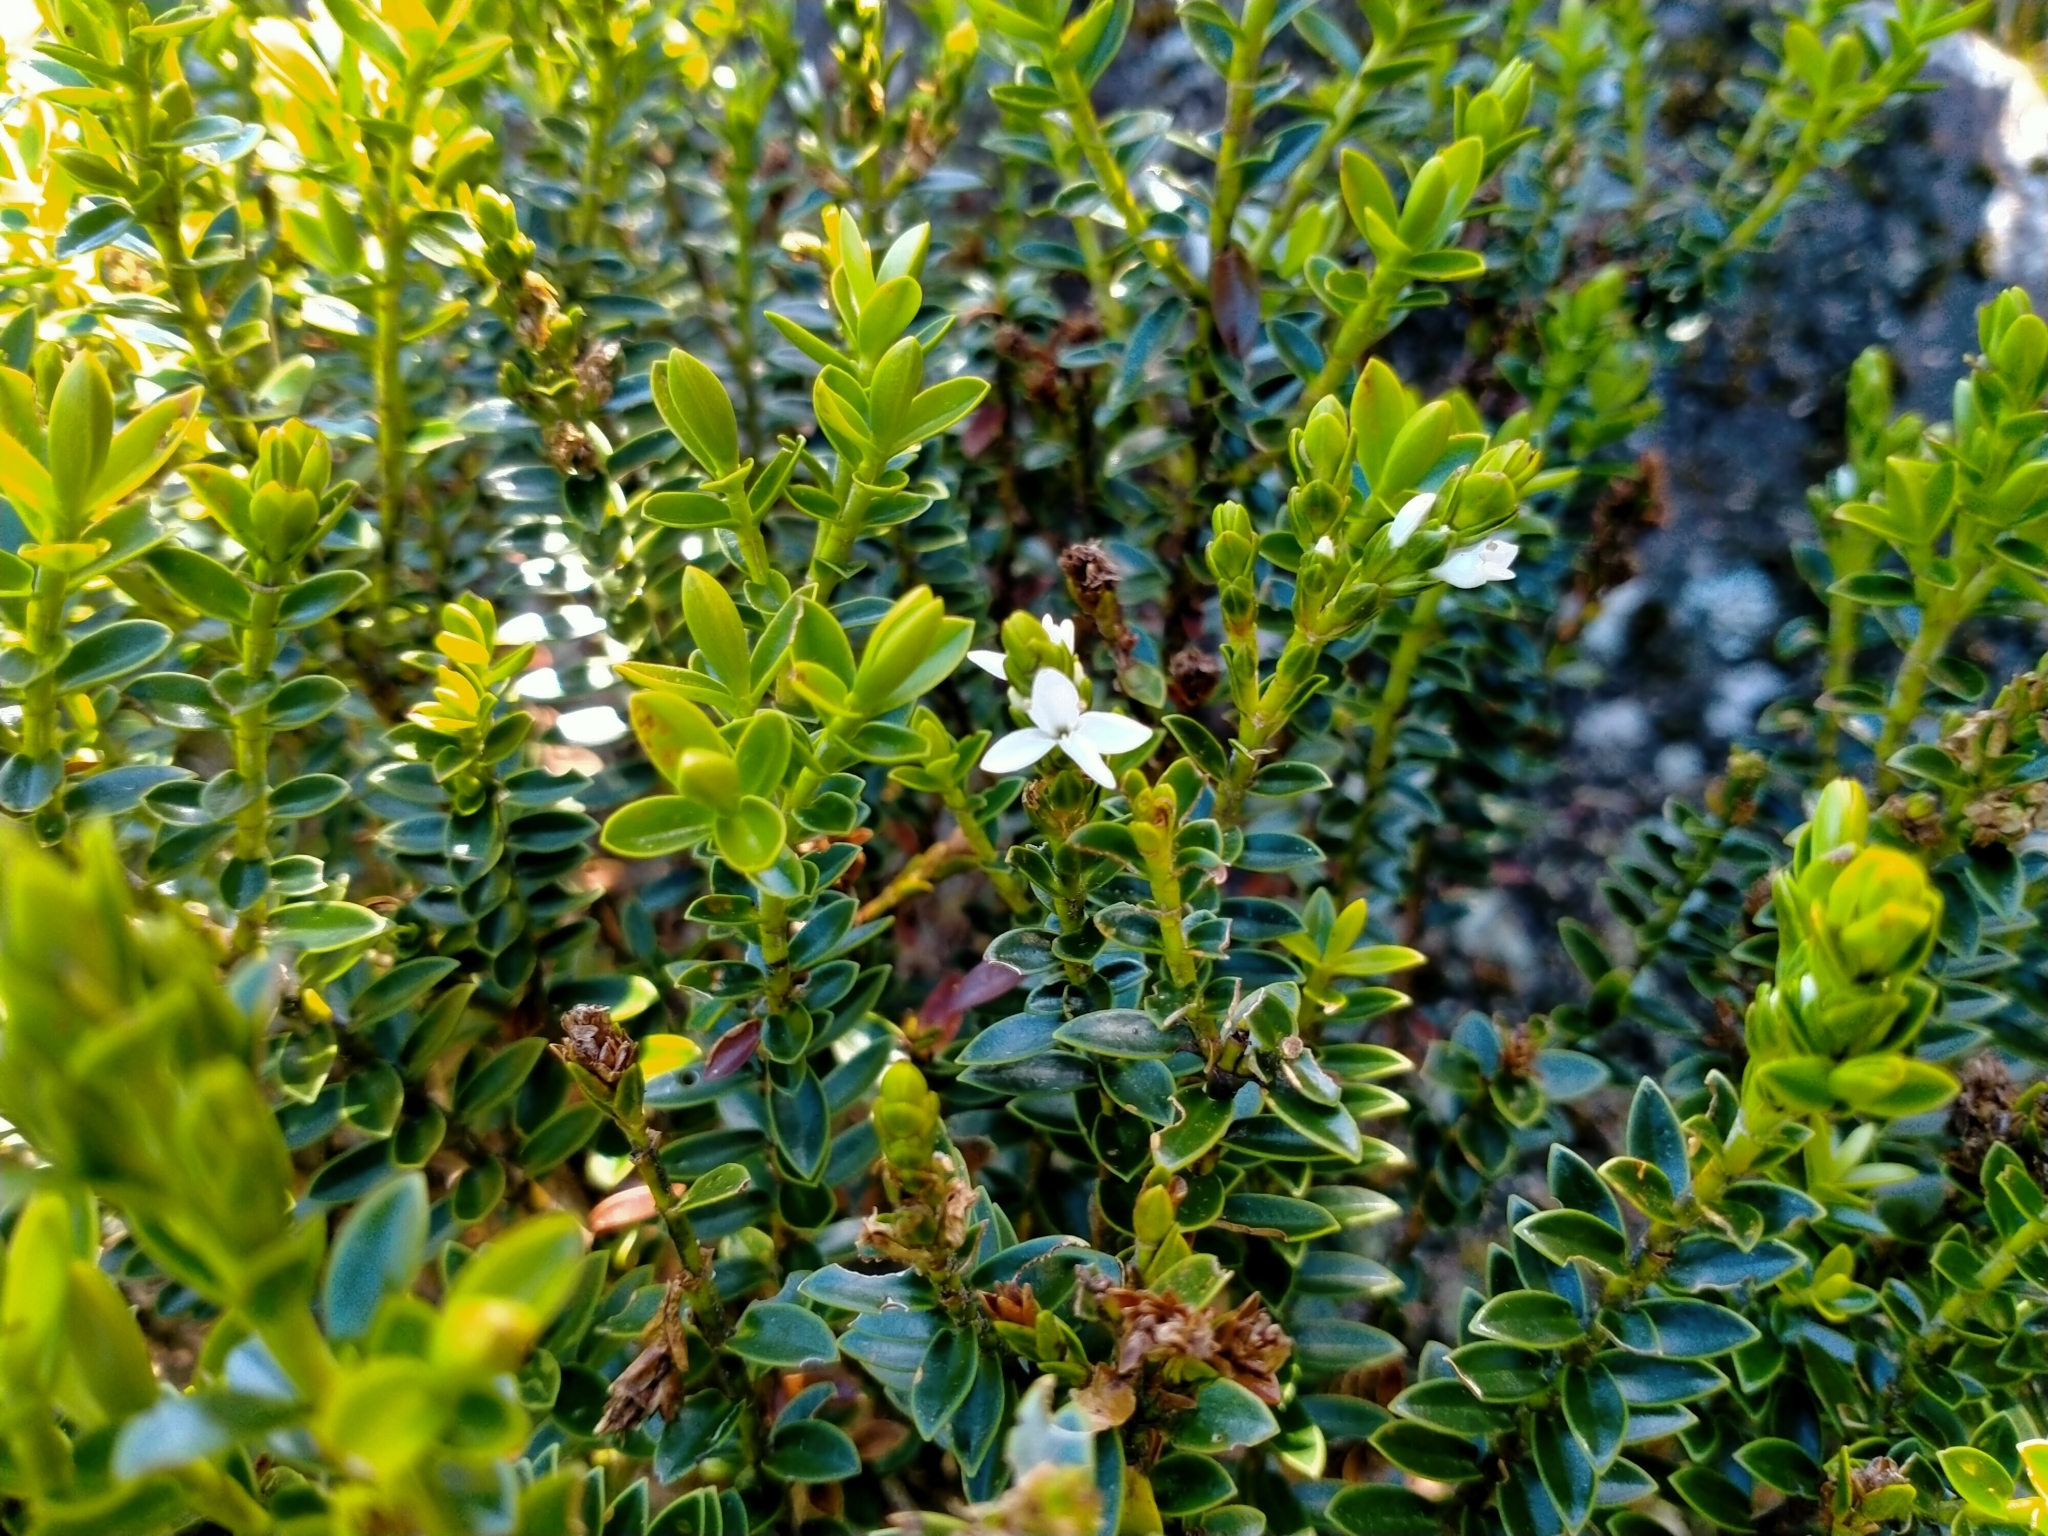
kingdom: Plantae
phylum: Tracheophyta
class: Magnoliopsida
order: Lamiales
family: Plantaginaceae
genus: Veronica
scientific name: Veronica odora
